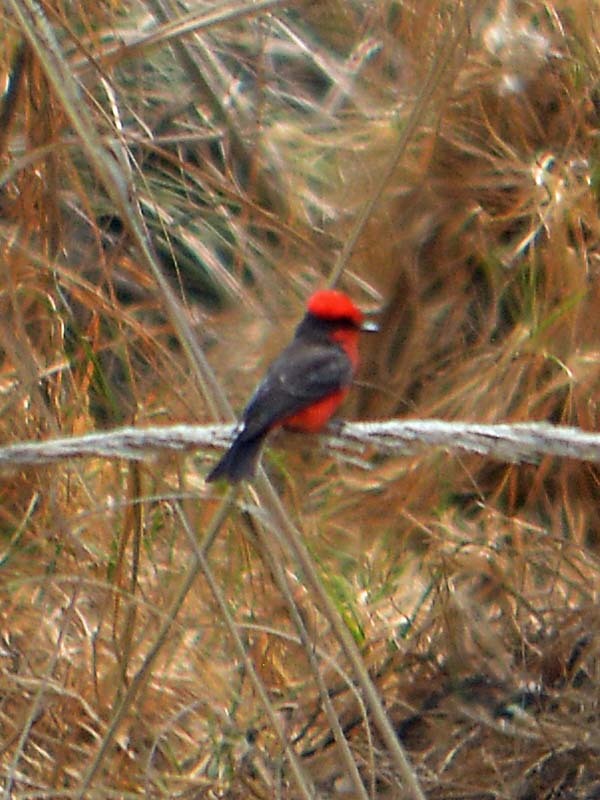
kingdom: Animalia
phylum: Chordata
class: Aves
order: Passeriformes
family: Tyrannidae
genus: Pyrocephalus
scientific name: Pyrocephalus rubinus
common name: Vermilion flycatcher
